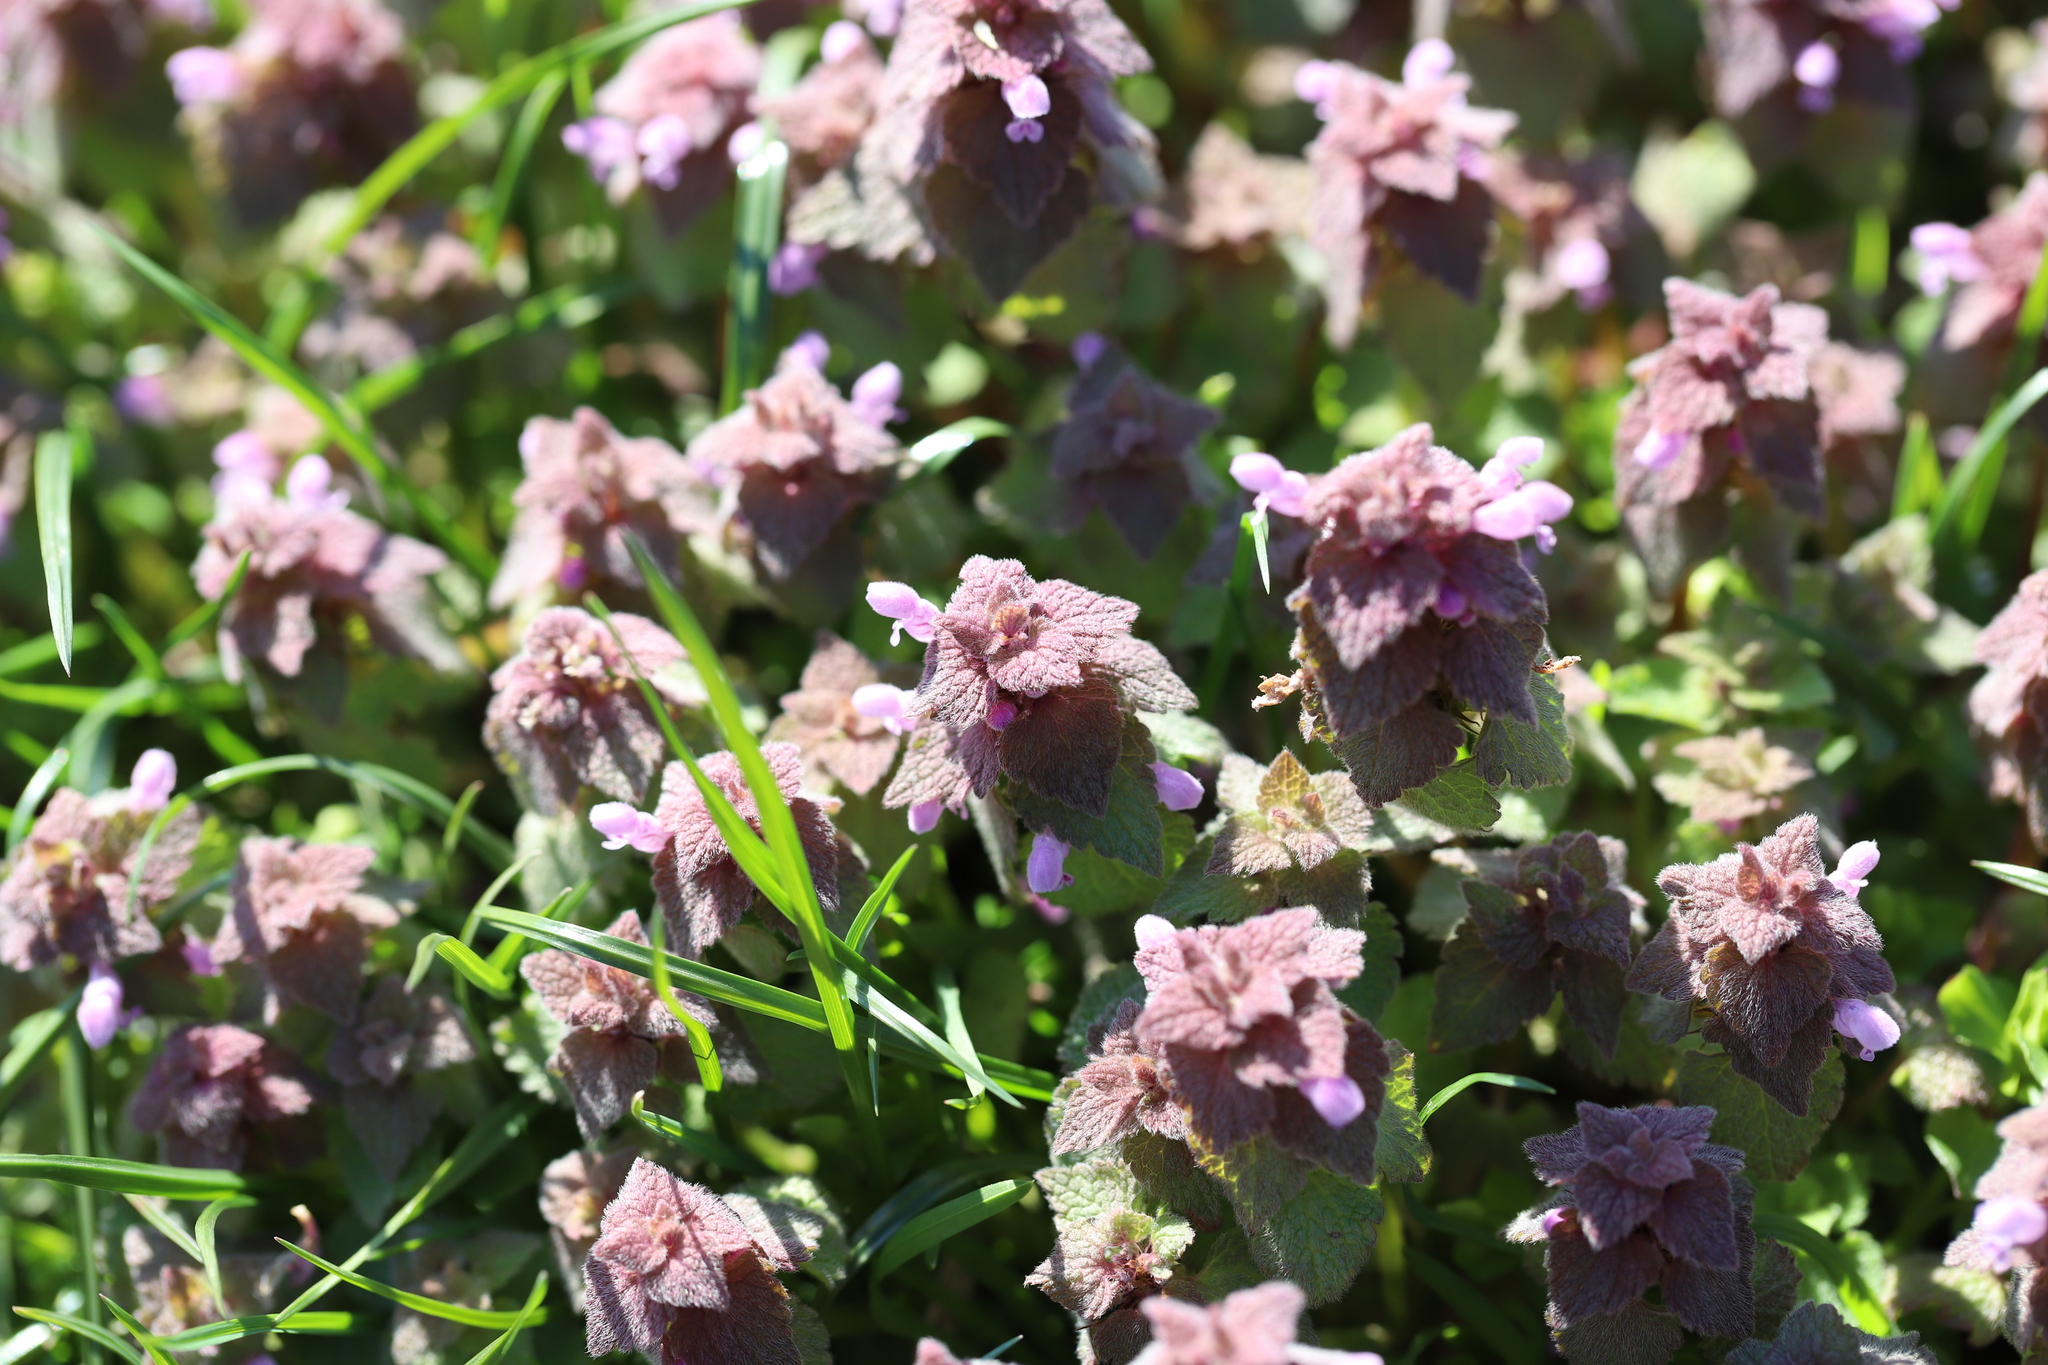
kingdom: Plantae
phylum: Tracheophyta
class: Magnoliopsida
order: Lamiales
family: Lamiaceae
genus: Lamium
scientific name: Lamium purpureum
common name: Red dead-nettle
